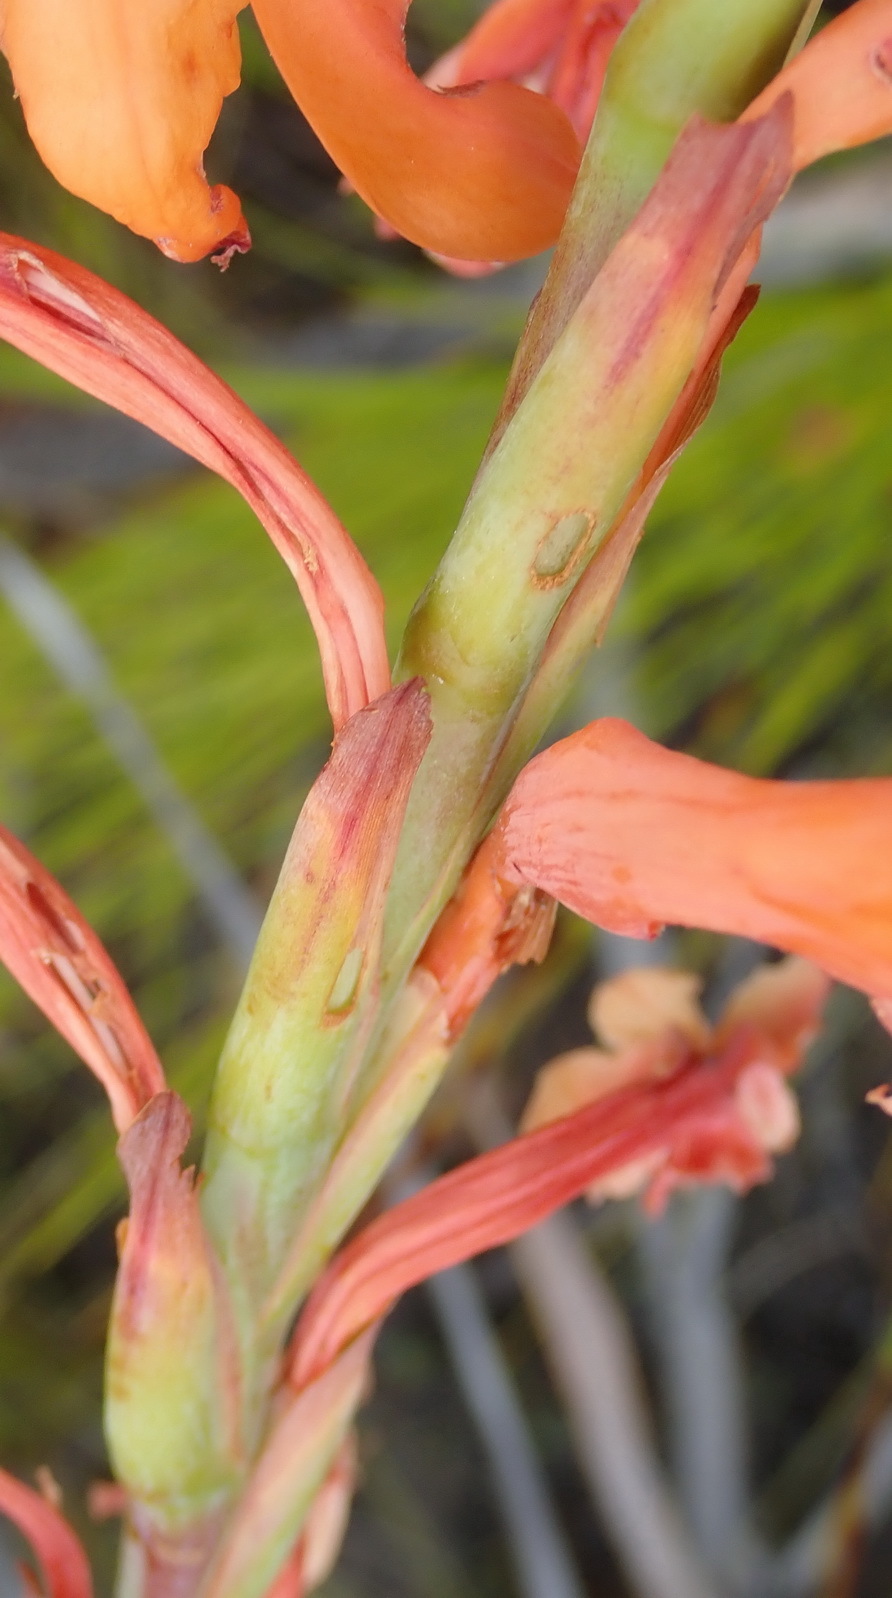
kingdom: Plantae
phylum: Tracheophyta
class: Liliopsida
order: Asparagales
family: Iridaceae
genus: Watsonia
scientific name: Watsonia pillansii
